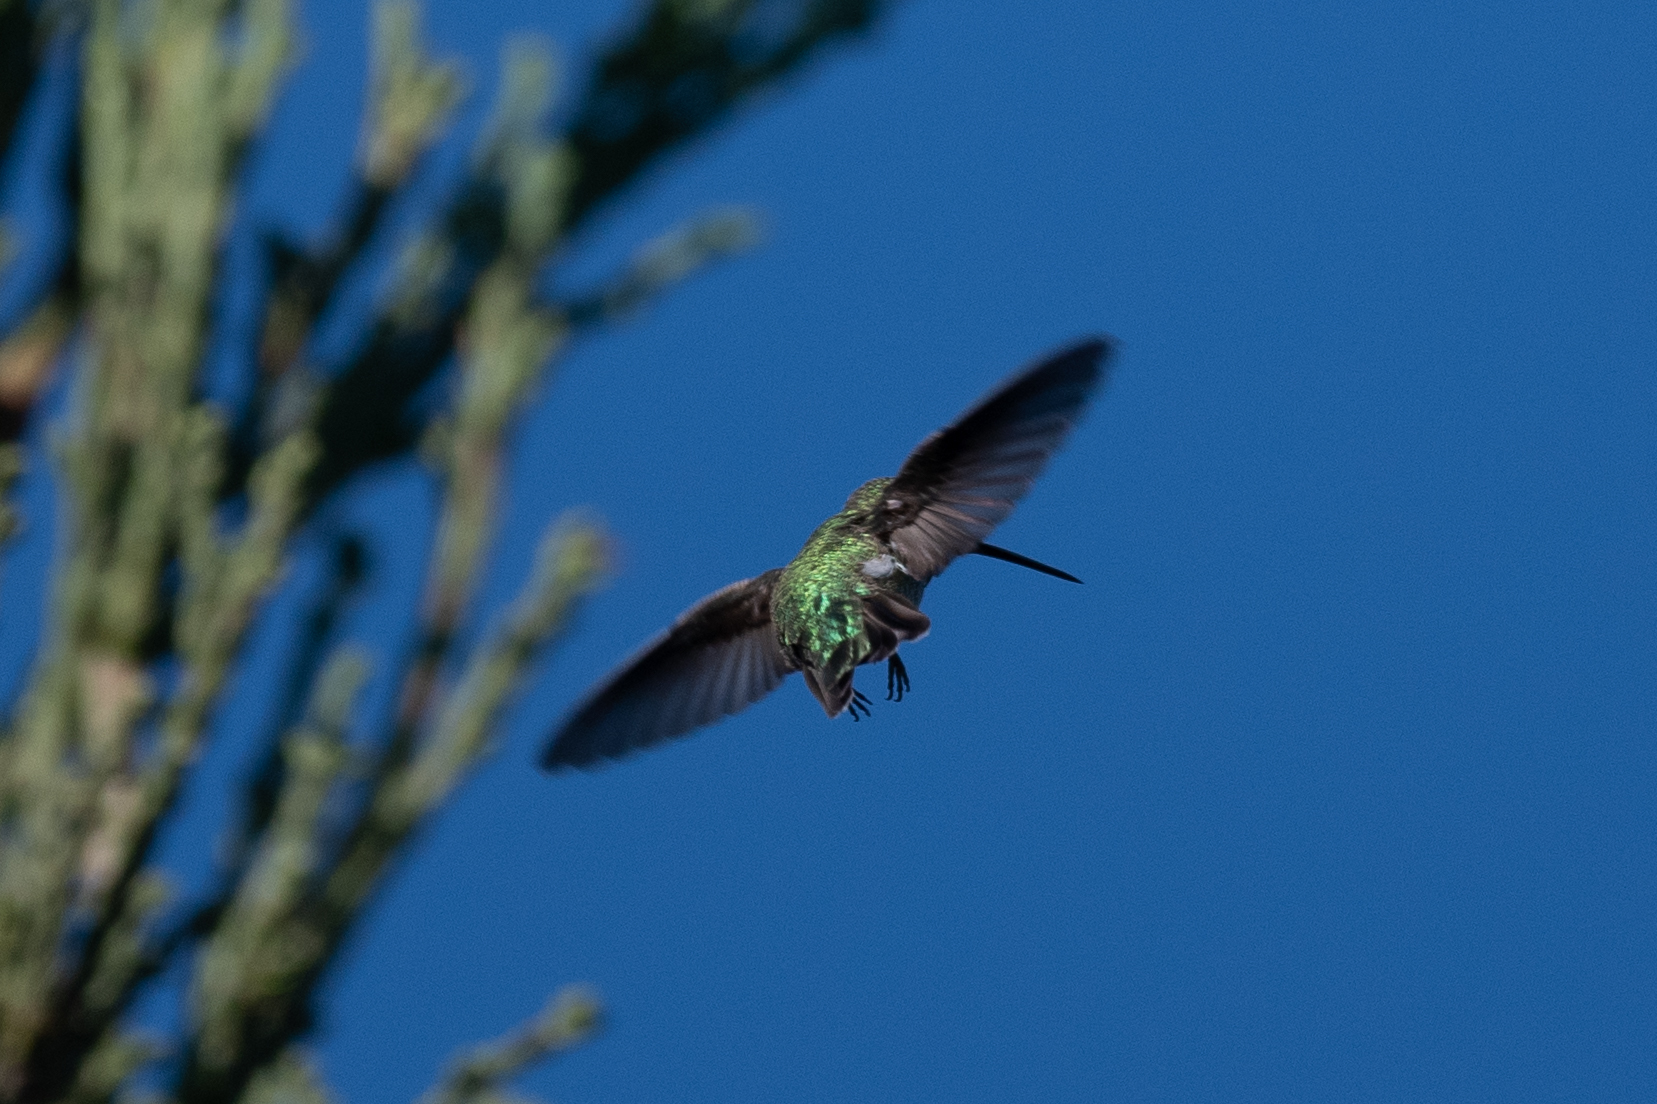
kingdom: Animalia
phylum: Chordata
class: Aves
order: Apodiformes
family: Trochilidae
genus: Calypte
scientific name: Calypte anna
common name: Anna's hummingbird
